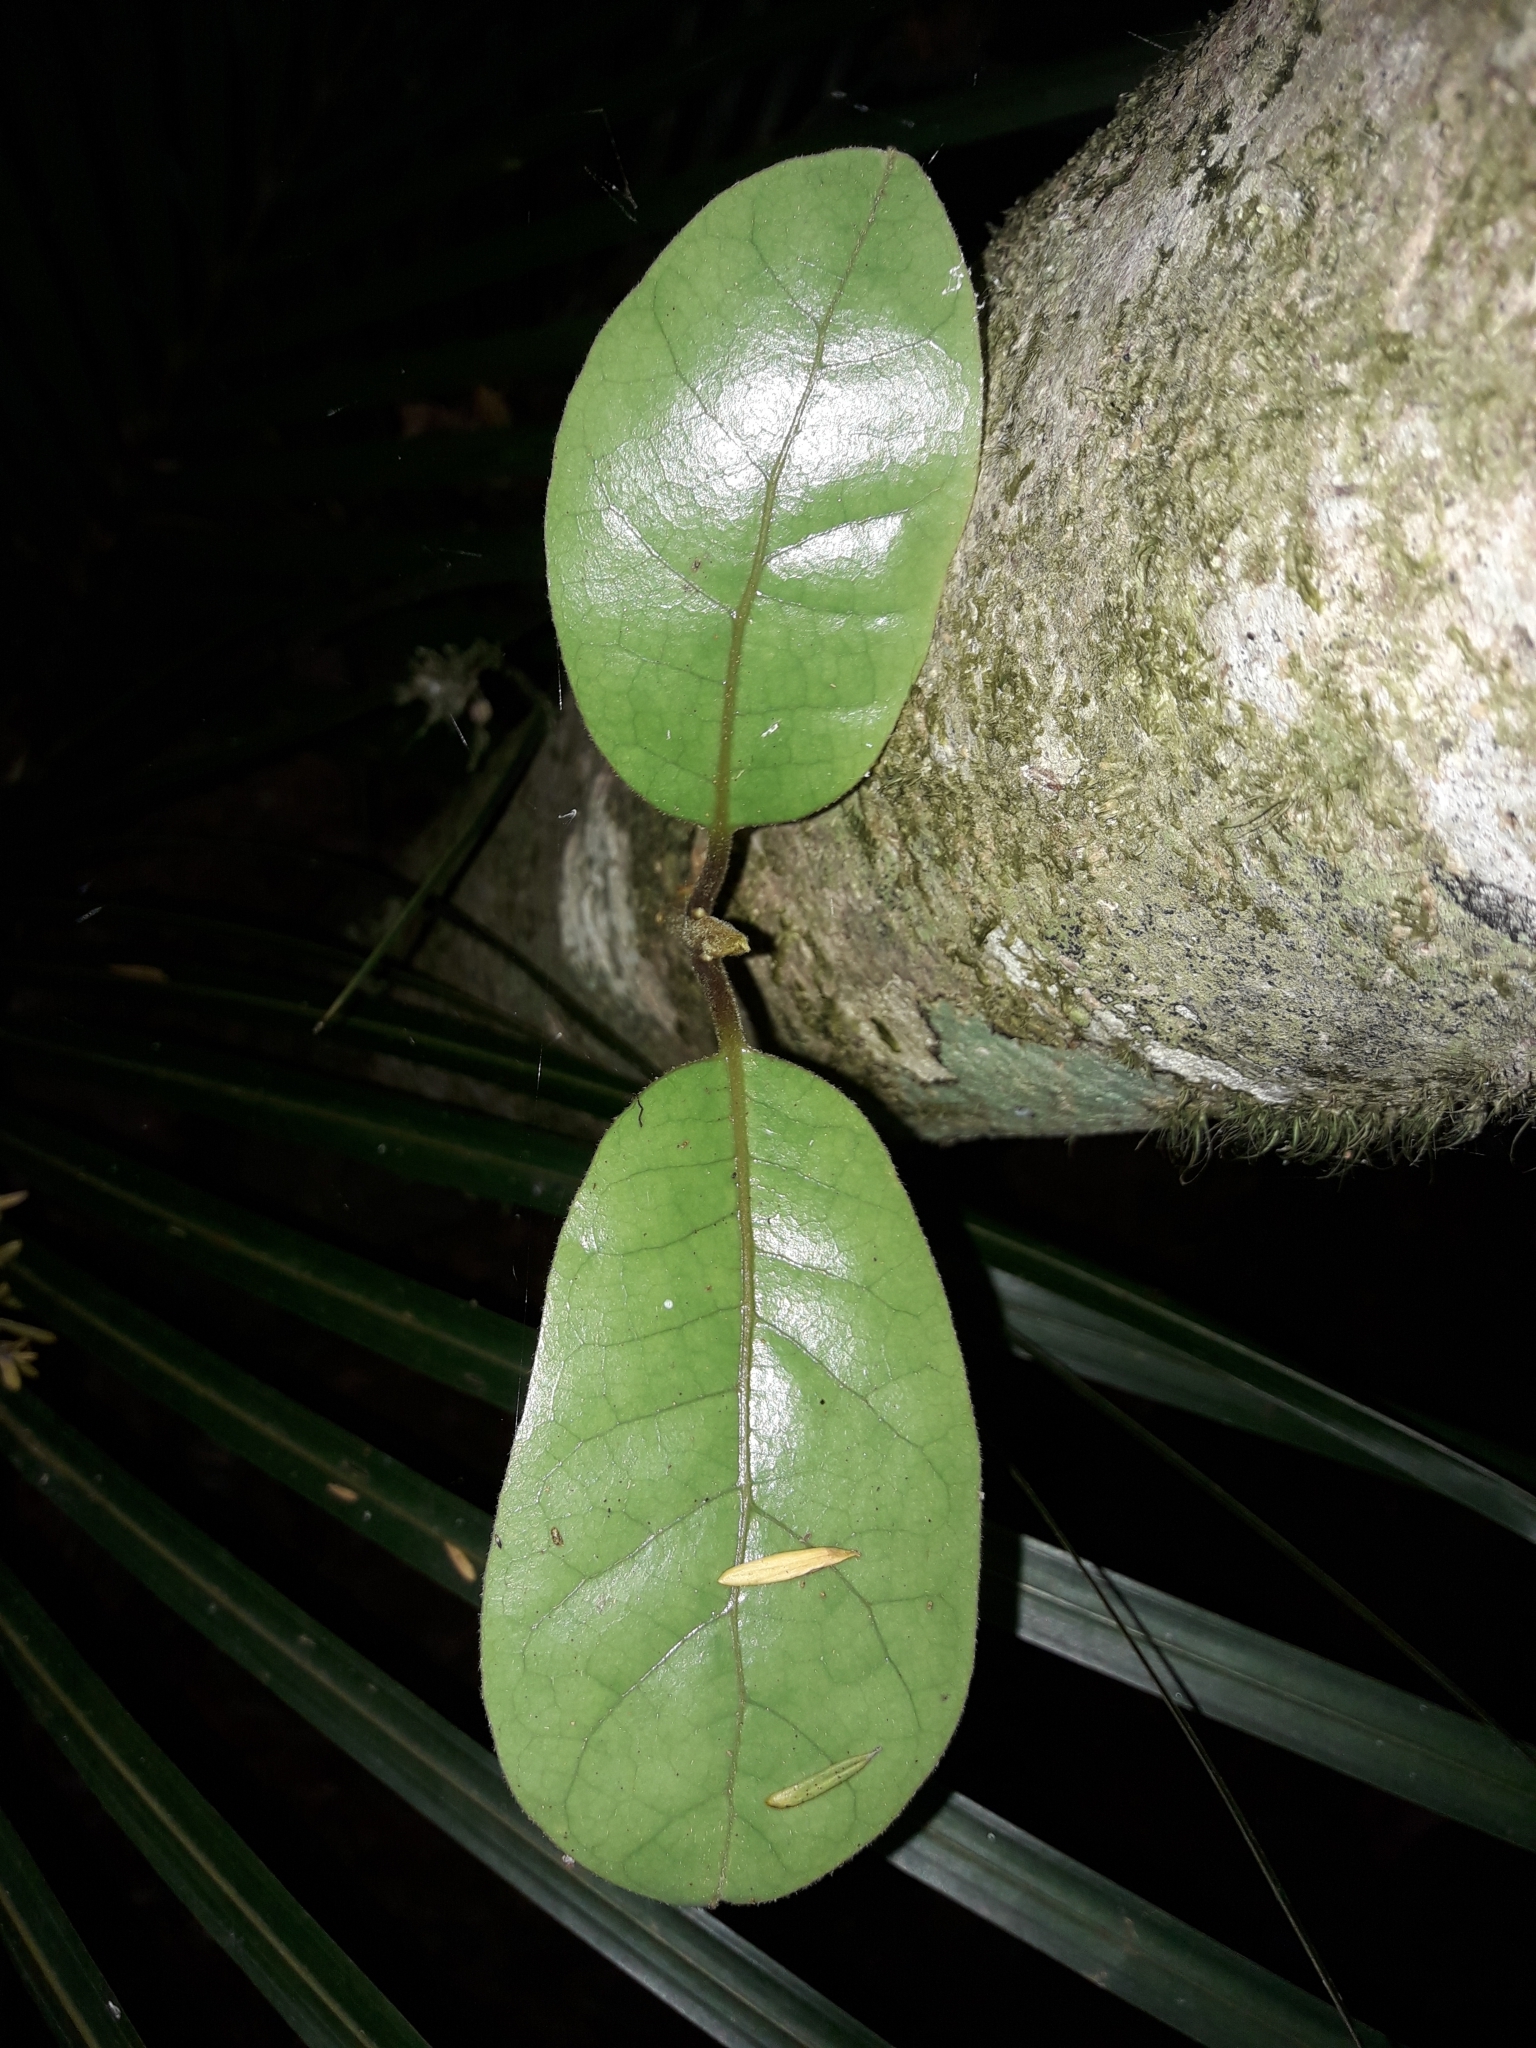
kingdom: Plantae
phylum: Tracheophyta
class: Magnoliopsida
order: Laurales
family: Lauraceae
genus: Beilschmiedia
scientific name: Beilschmiedia tarairi
